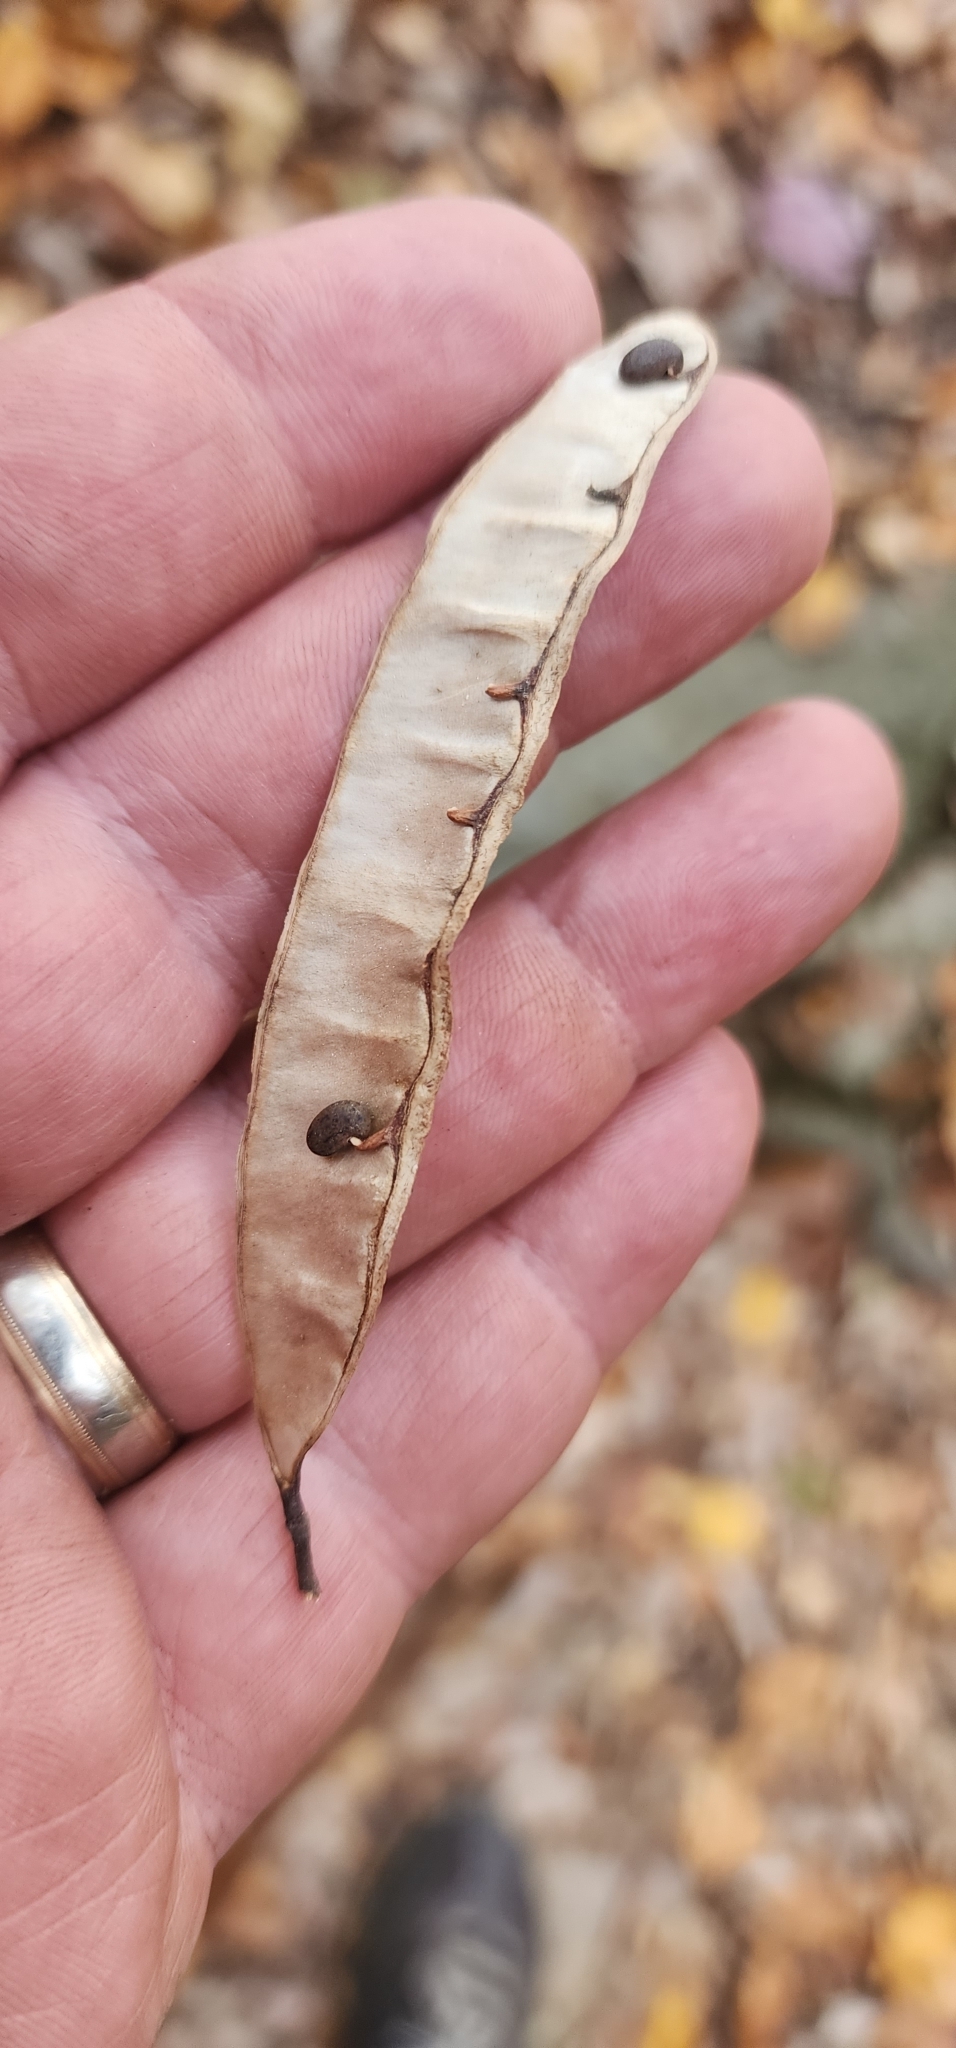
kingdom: Plantae
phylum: Tracheophyta
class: Magnoliopsida
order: Fabales
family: Fabaceae
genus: Robinia
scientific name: Robinia pseudoacacia
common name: Black locust
